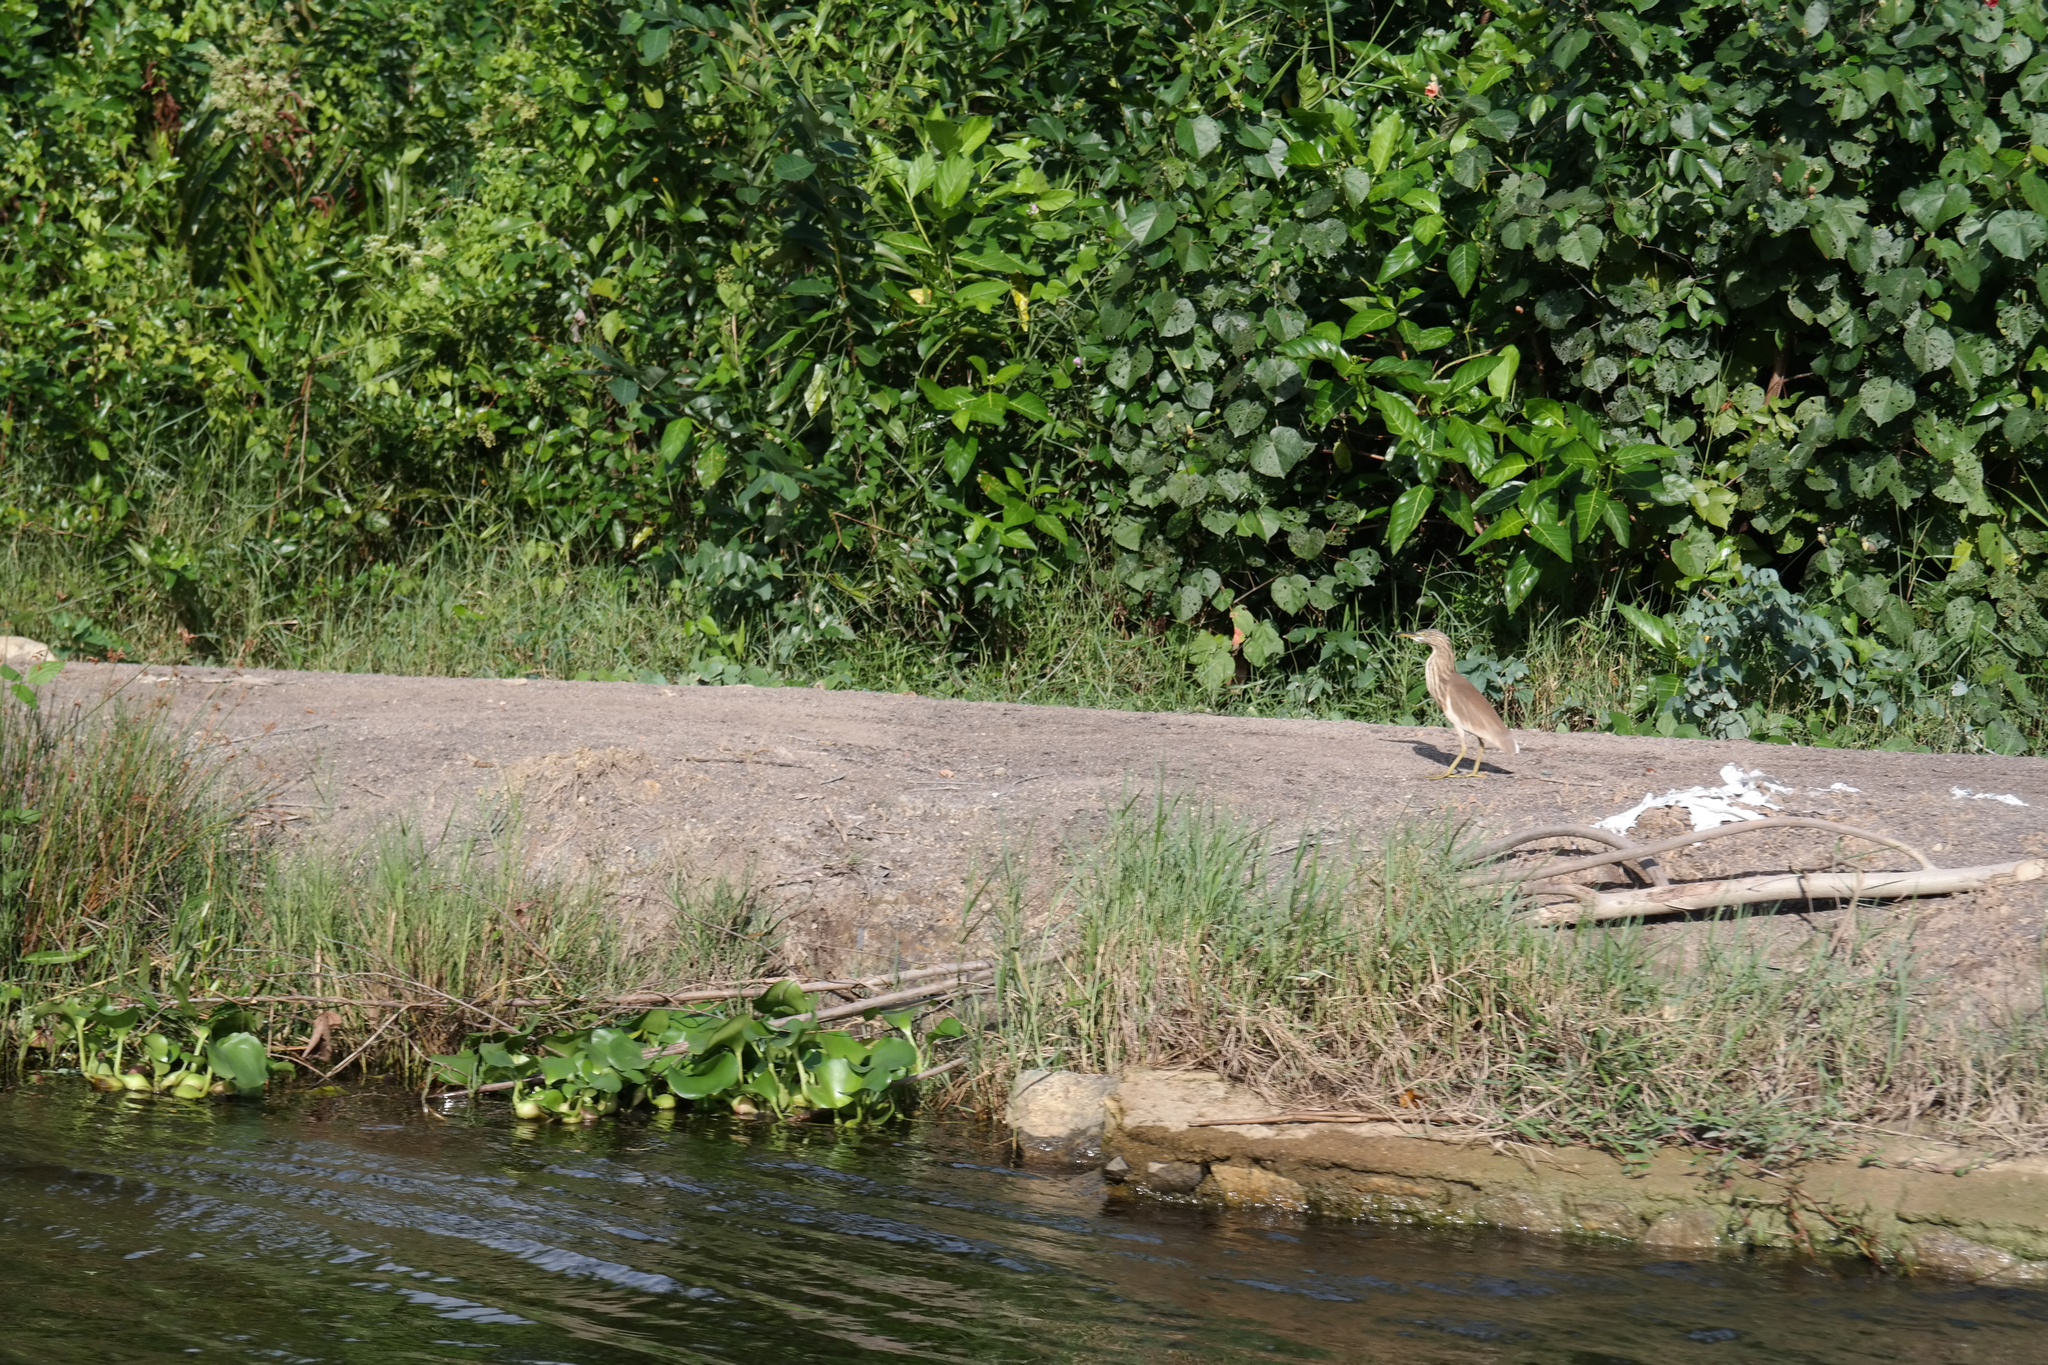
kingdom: Animalia
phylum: Chordata
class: Aves
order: Pelecaniformes
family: Ardeidae
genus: Ardeola
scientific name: Ardeola grayii
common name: Indian pond heron
